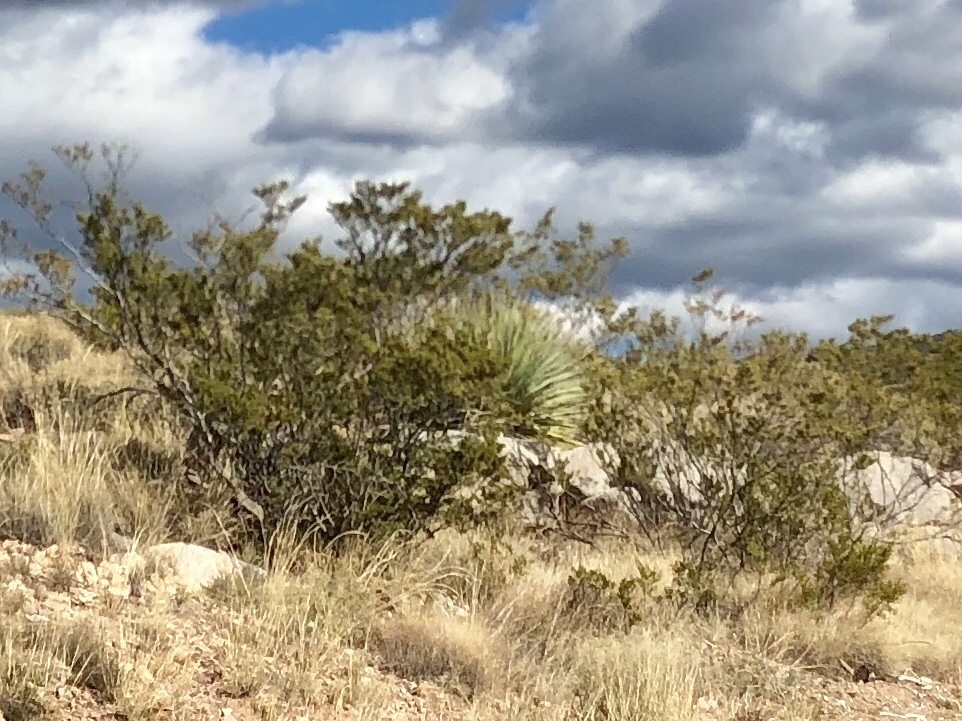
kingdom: Plantae
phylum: Tracheophyta
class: Magnoliopsida
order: Zygophyllales
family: Zygophyllaceae
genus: Larrea
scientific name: Larrea tridentata
